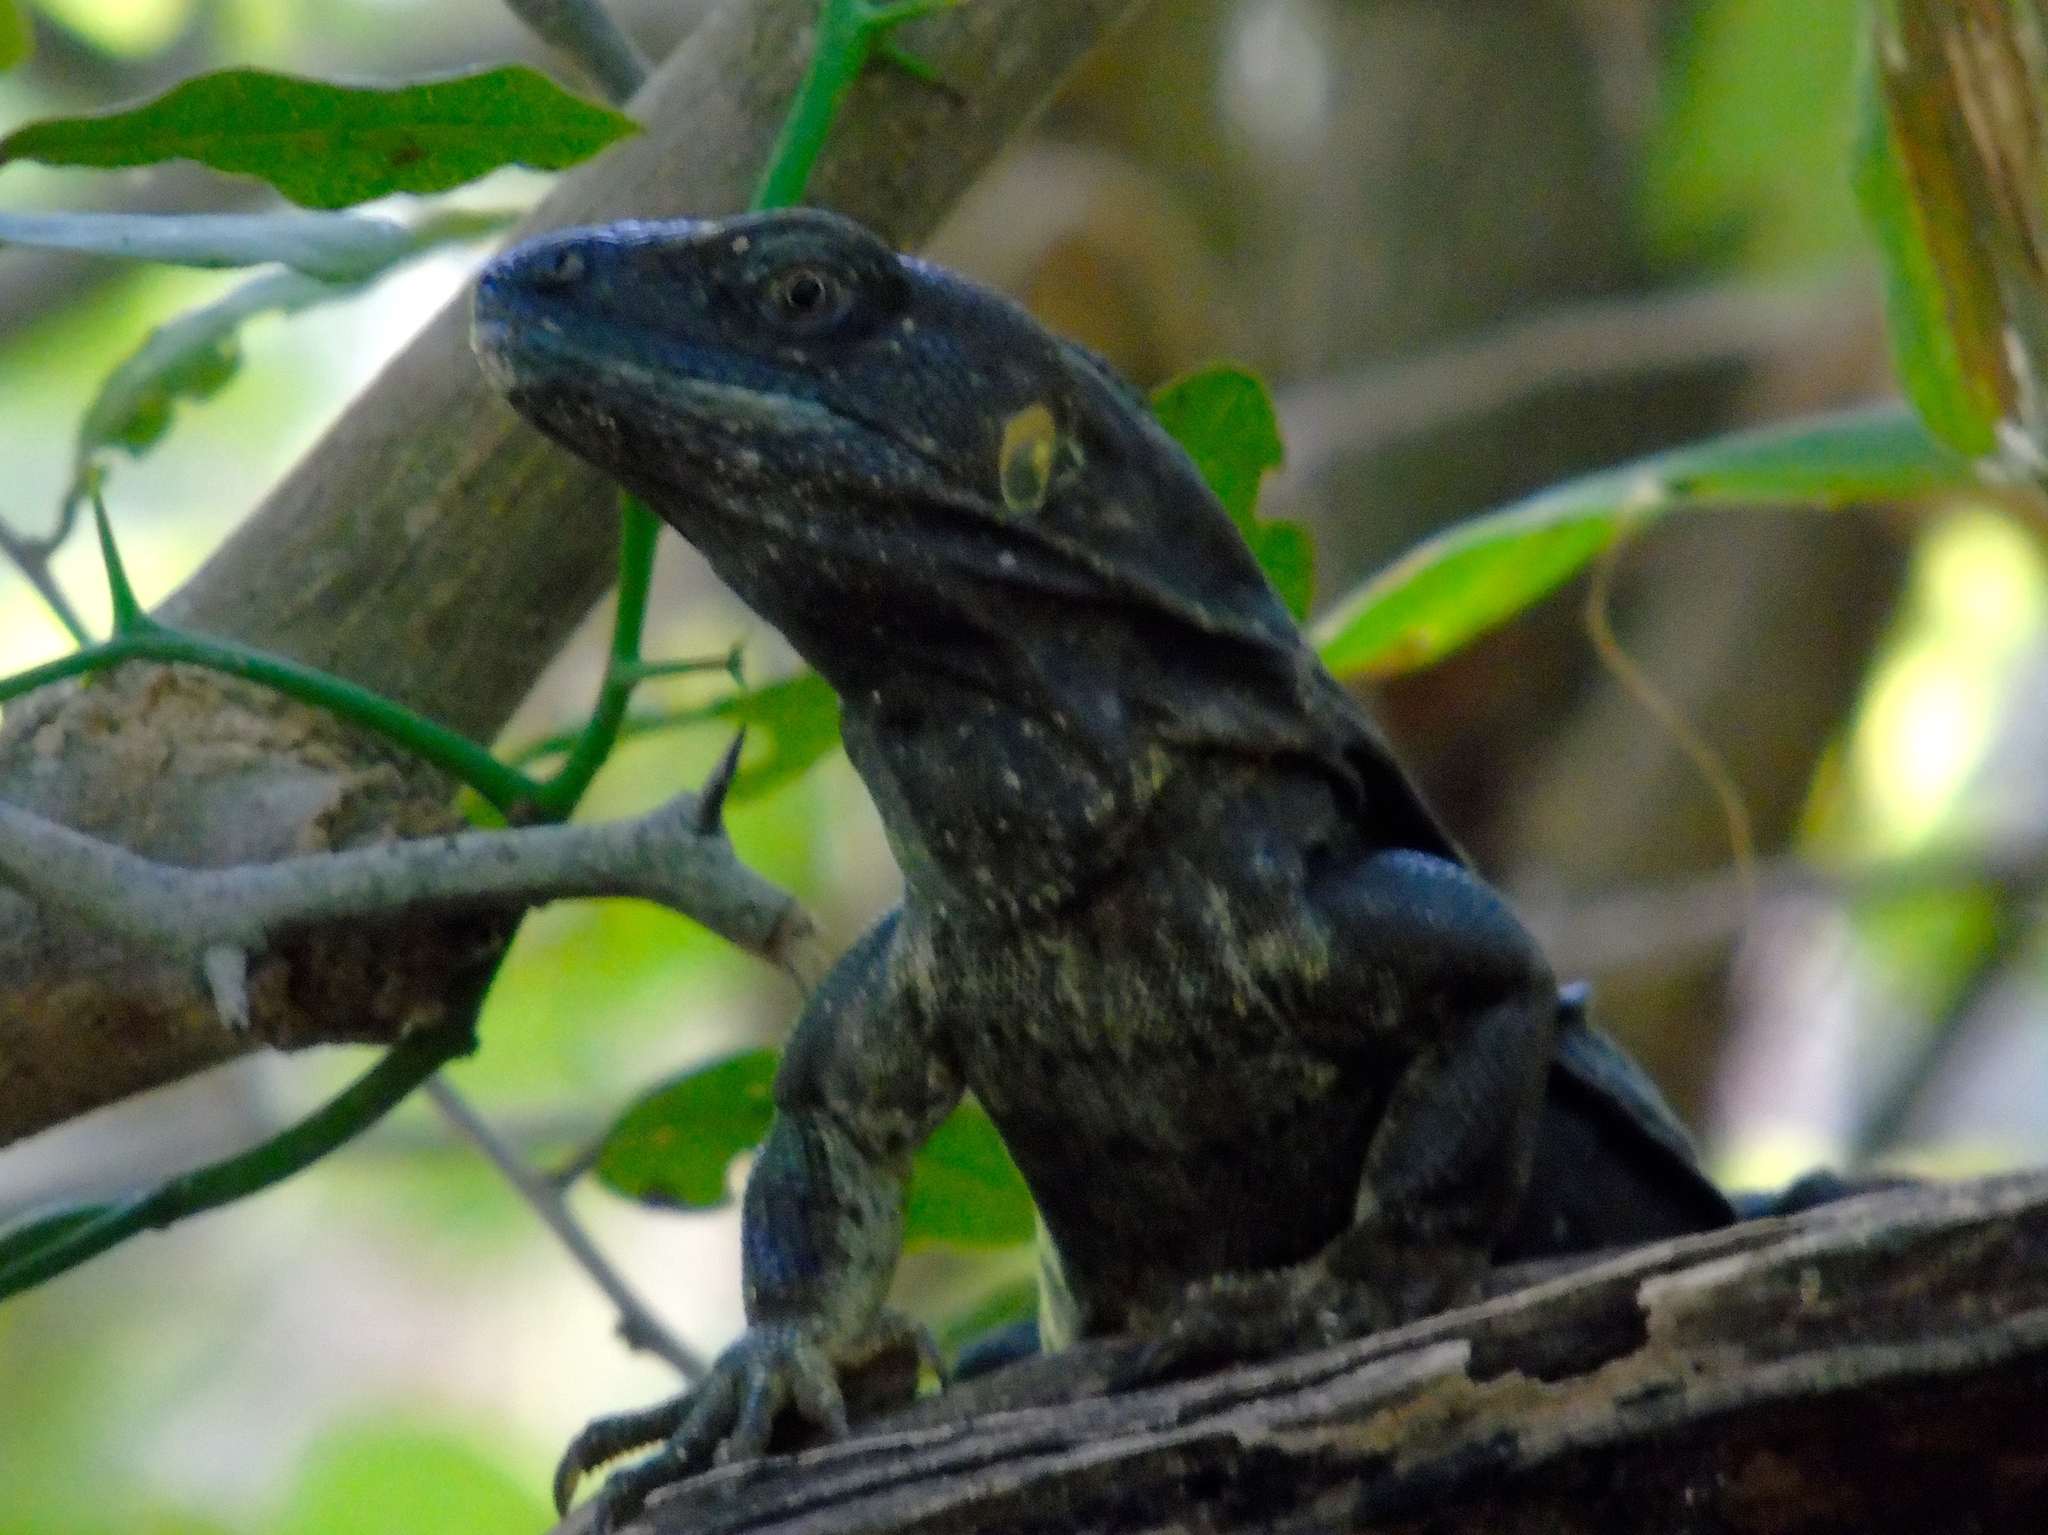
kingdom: Animalia
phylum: Chordata
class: Squamata
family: Iguanidae
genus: Ctenosaura
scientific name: Ctenosaura pectinata
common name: Guerreran spiny-tailed iguana
